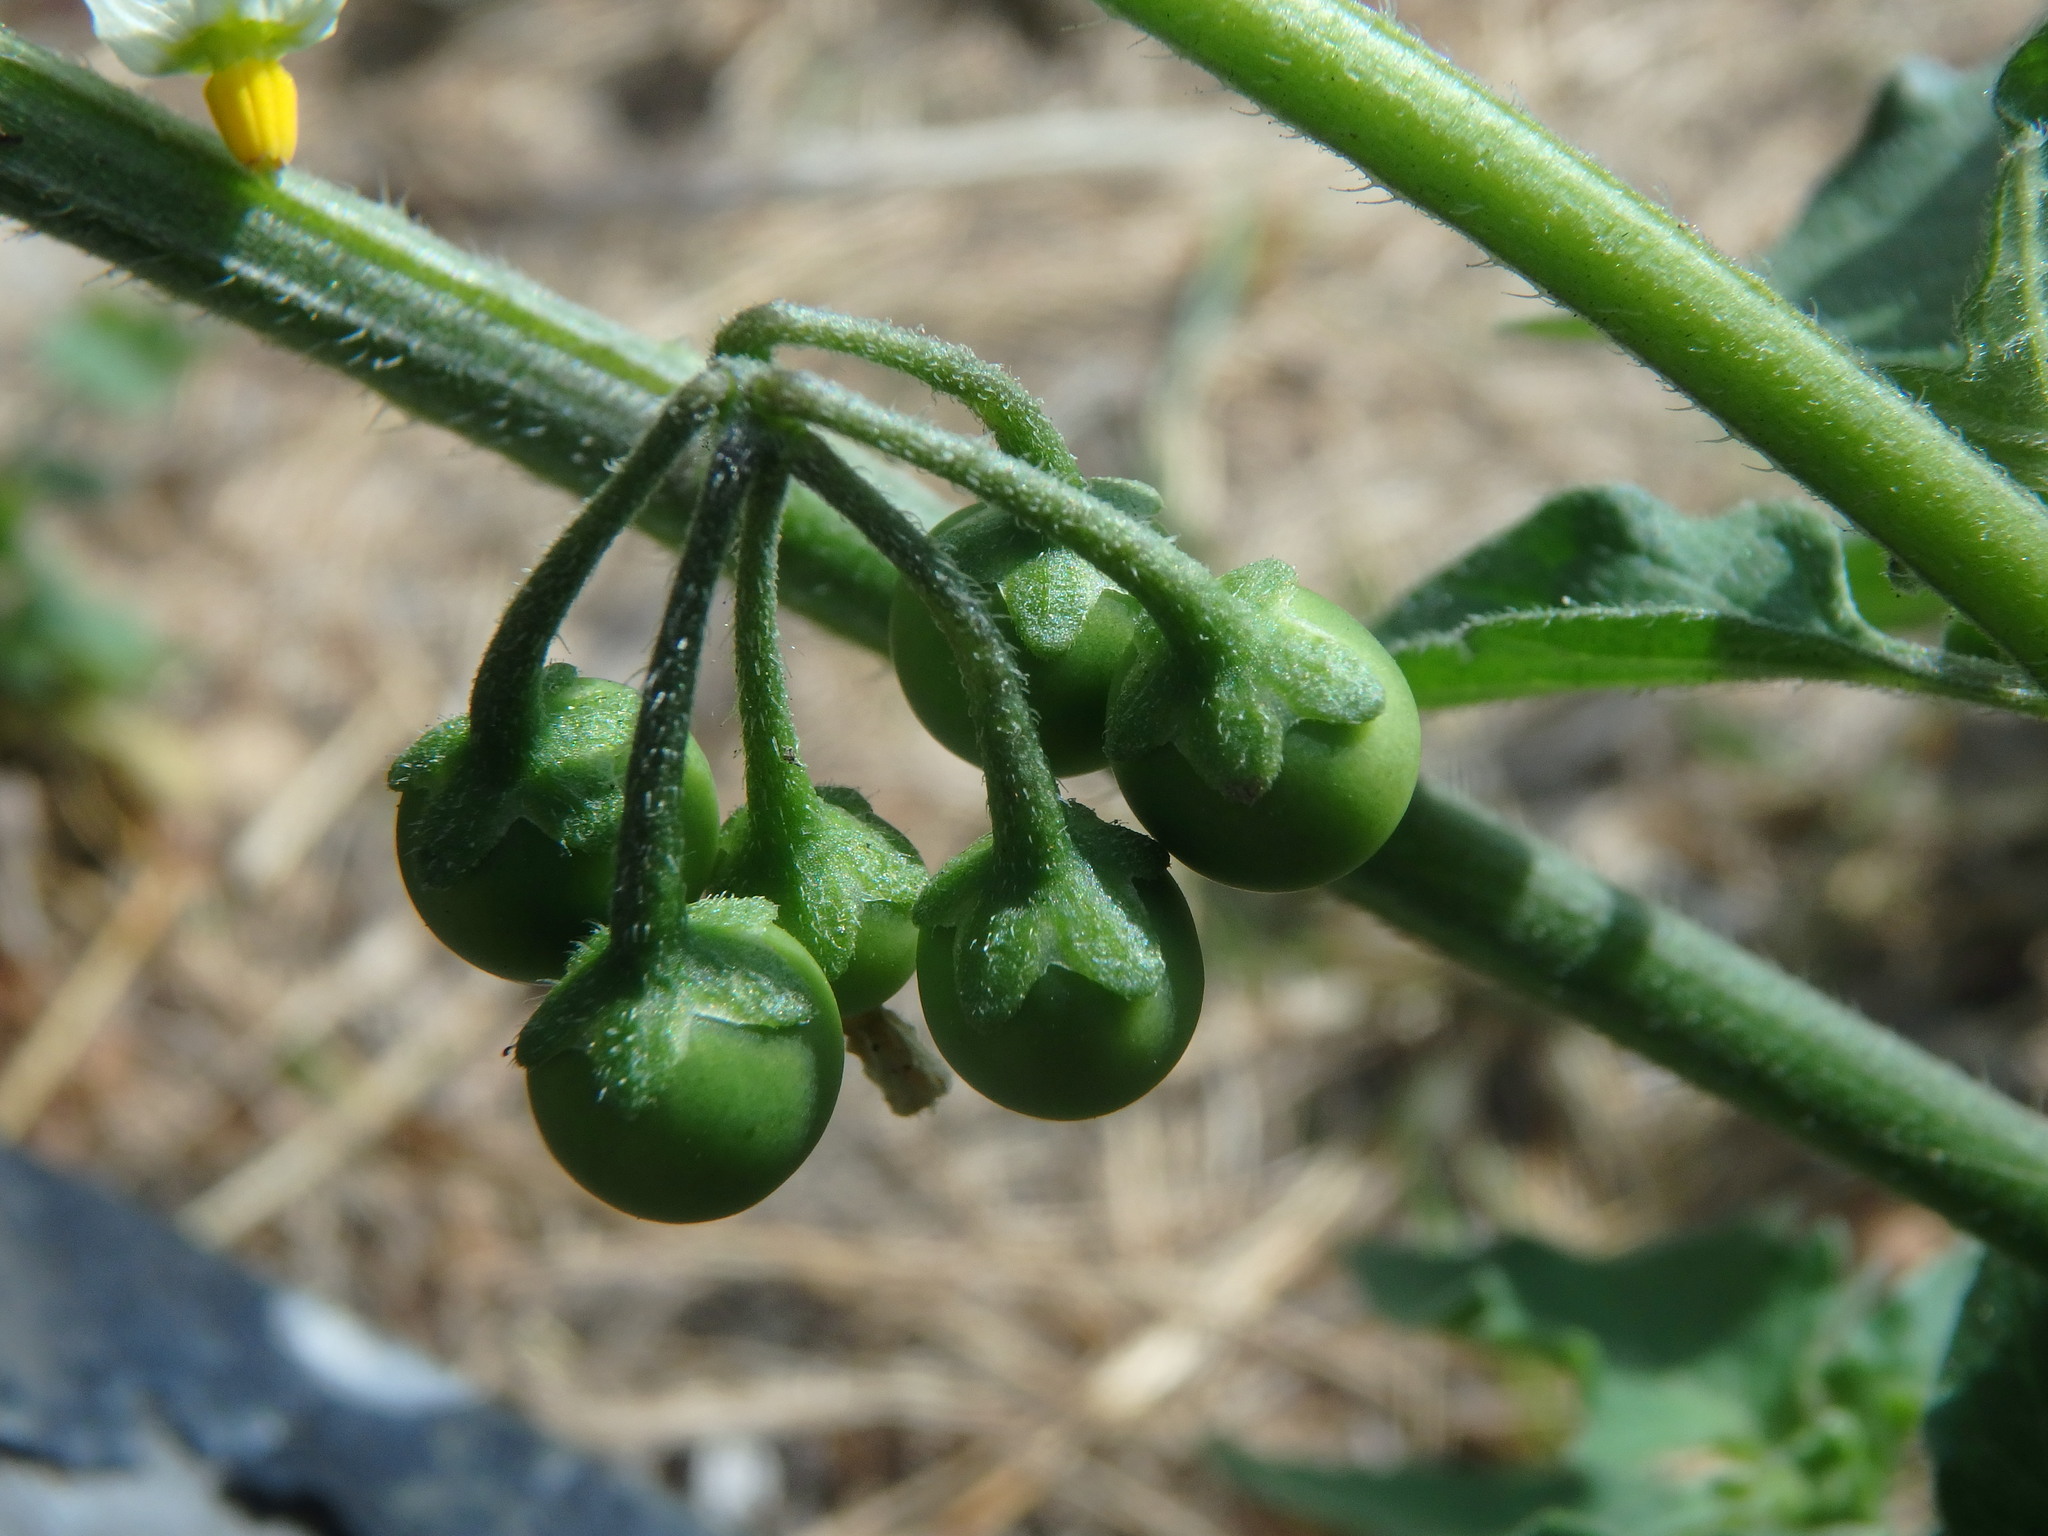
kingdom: Plantae
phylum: Tracheophyta
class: Magnoliopsida
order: Solanales
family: Solanaceae
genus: Solanum
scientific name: Solanum nigrum
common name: Black nightshade
